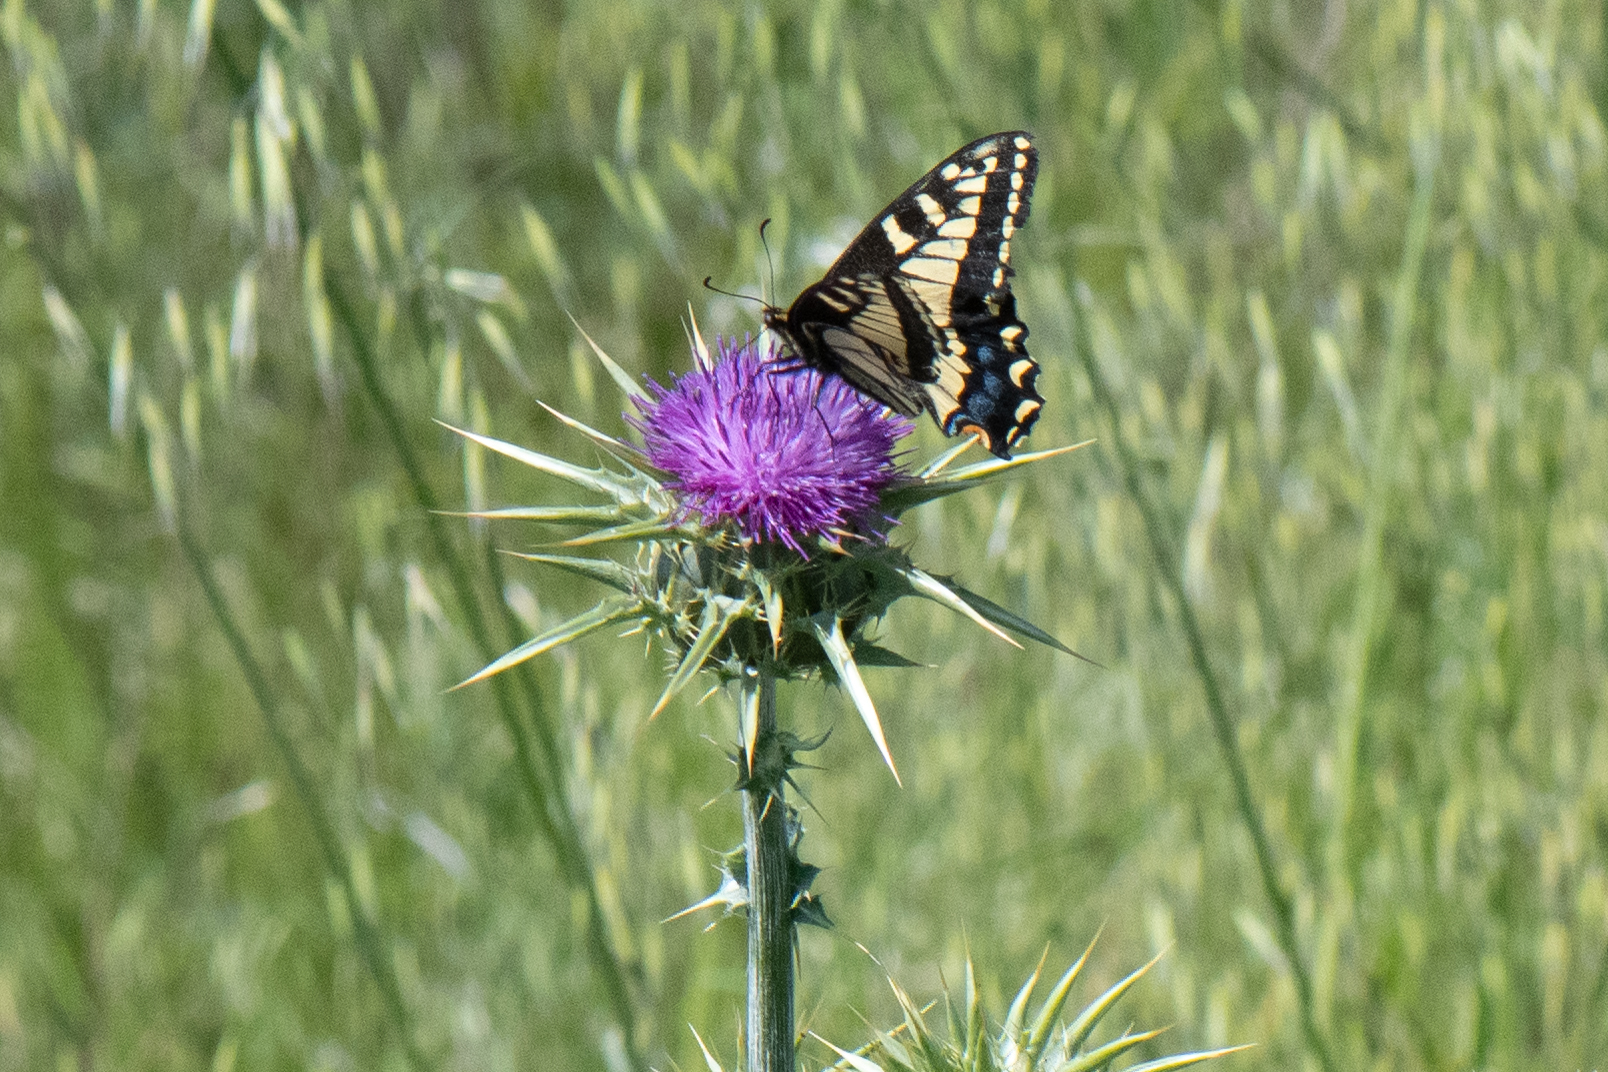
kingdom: Animalia
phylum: Arthropoda
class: Insecta
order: Lepidoptera
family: Papilionidae
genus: Papilio
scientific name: Papilio zelicaon
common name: Anise swallowtail
